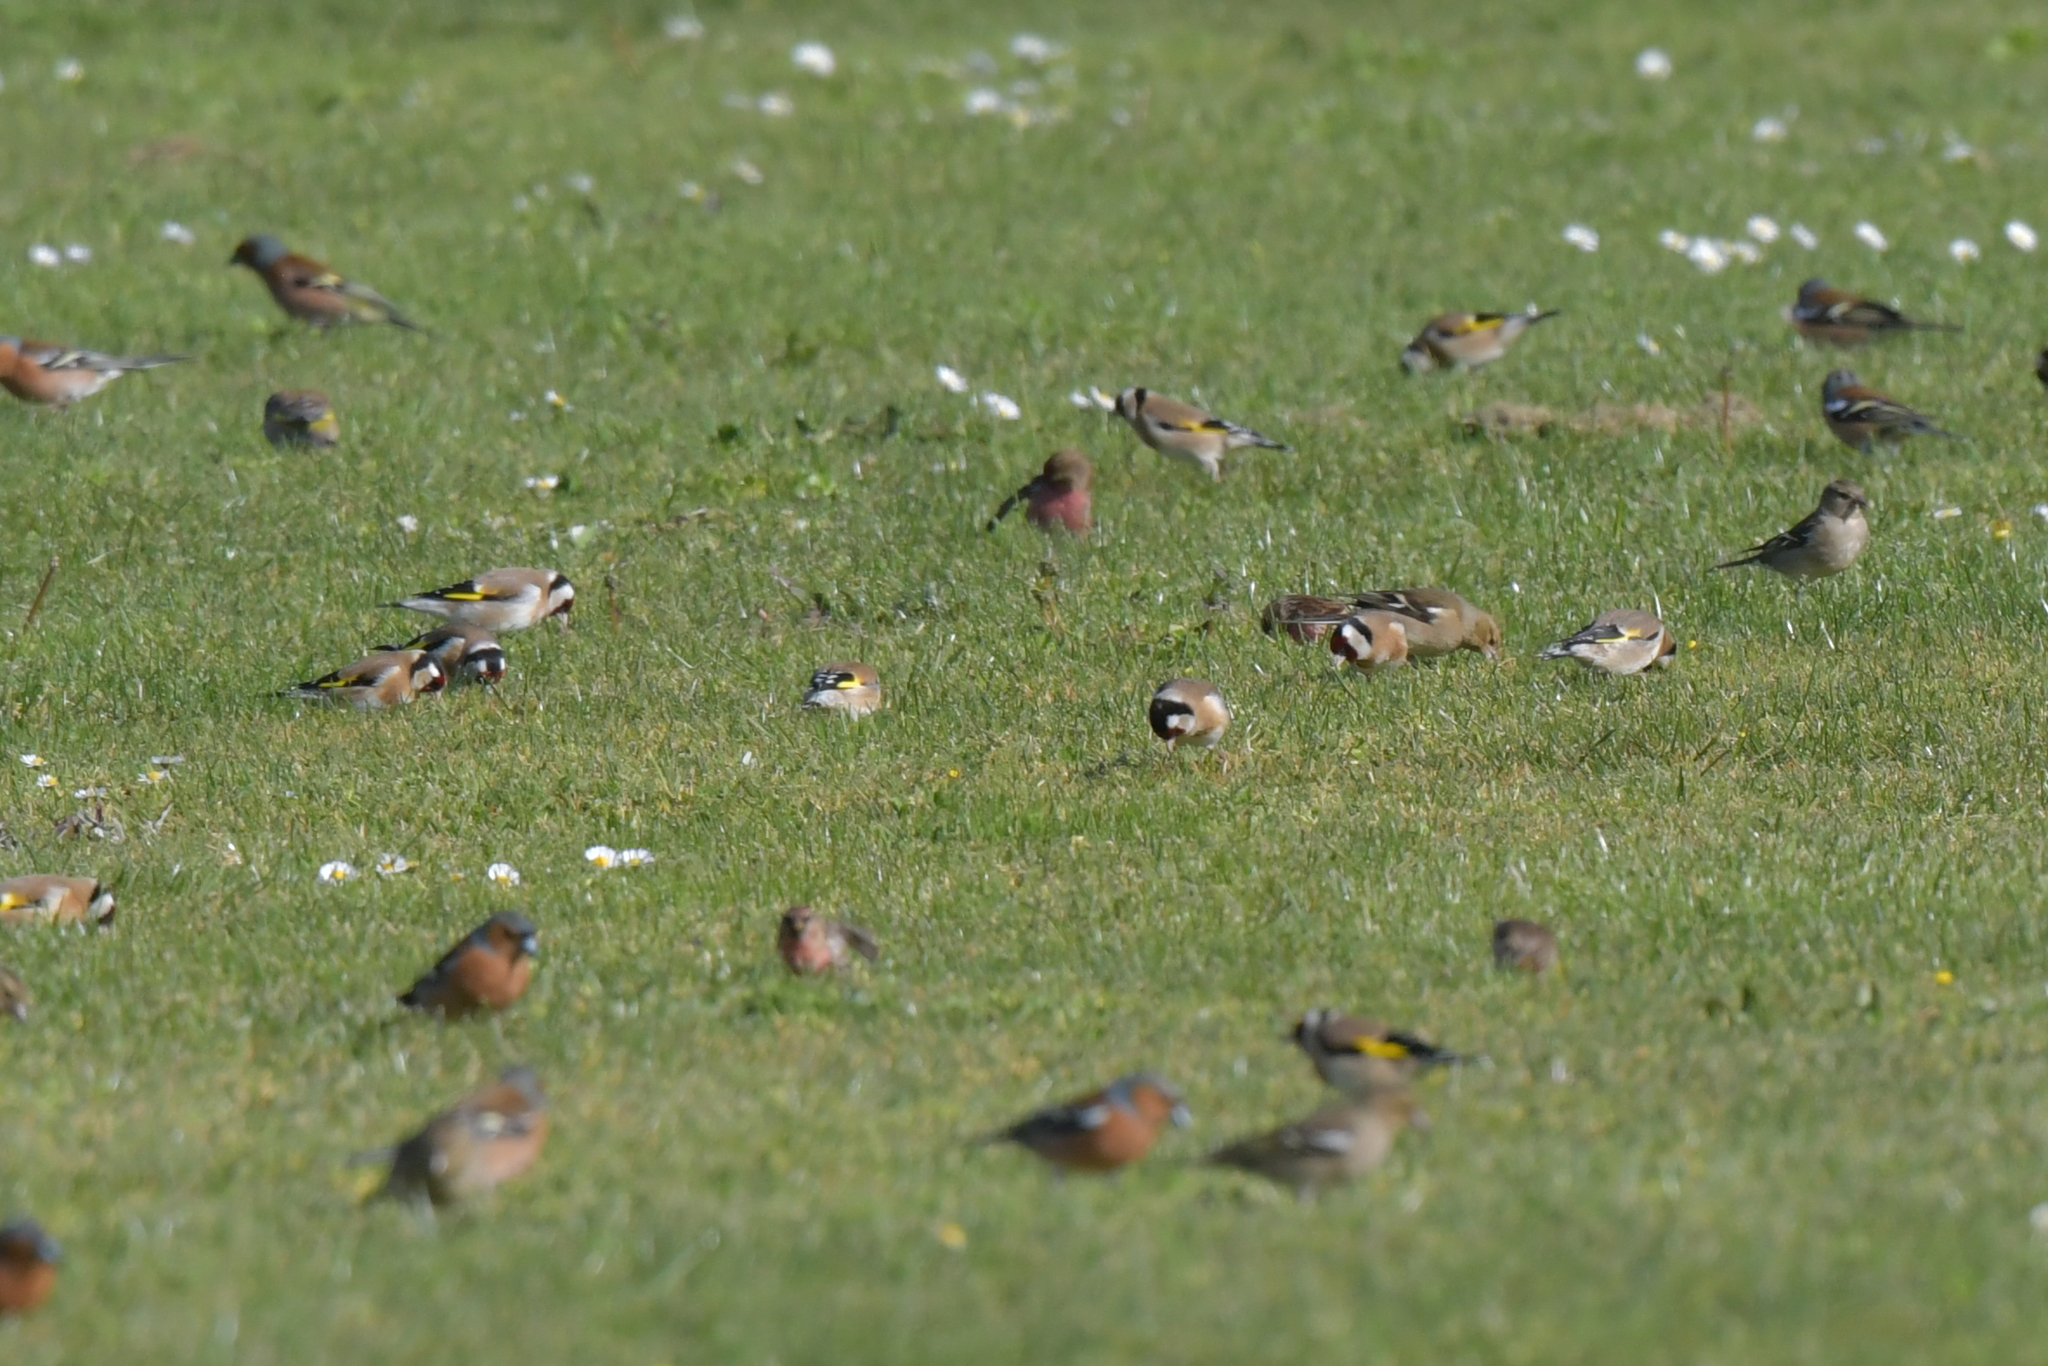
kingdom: Animalia
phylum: Chordata
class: Aves
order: Passeriformes
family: Fringillidae
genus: Acanthis
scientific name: Acanthis flammea
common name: Common redpoll
